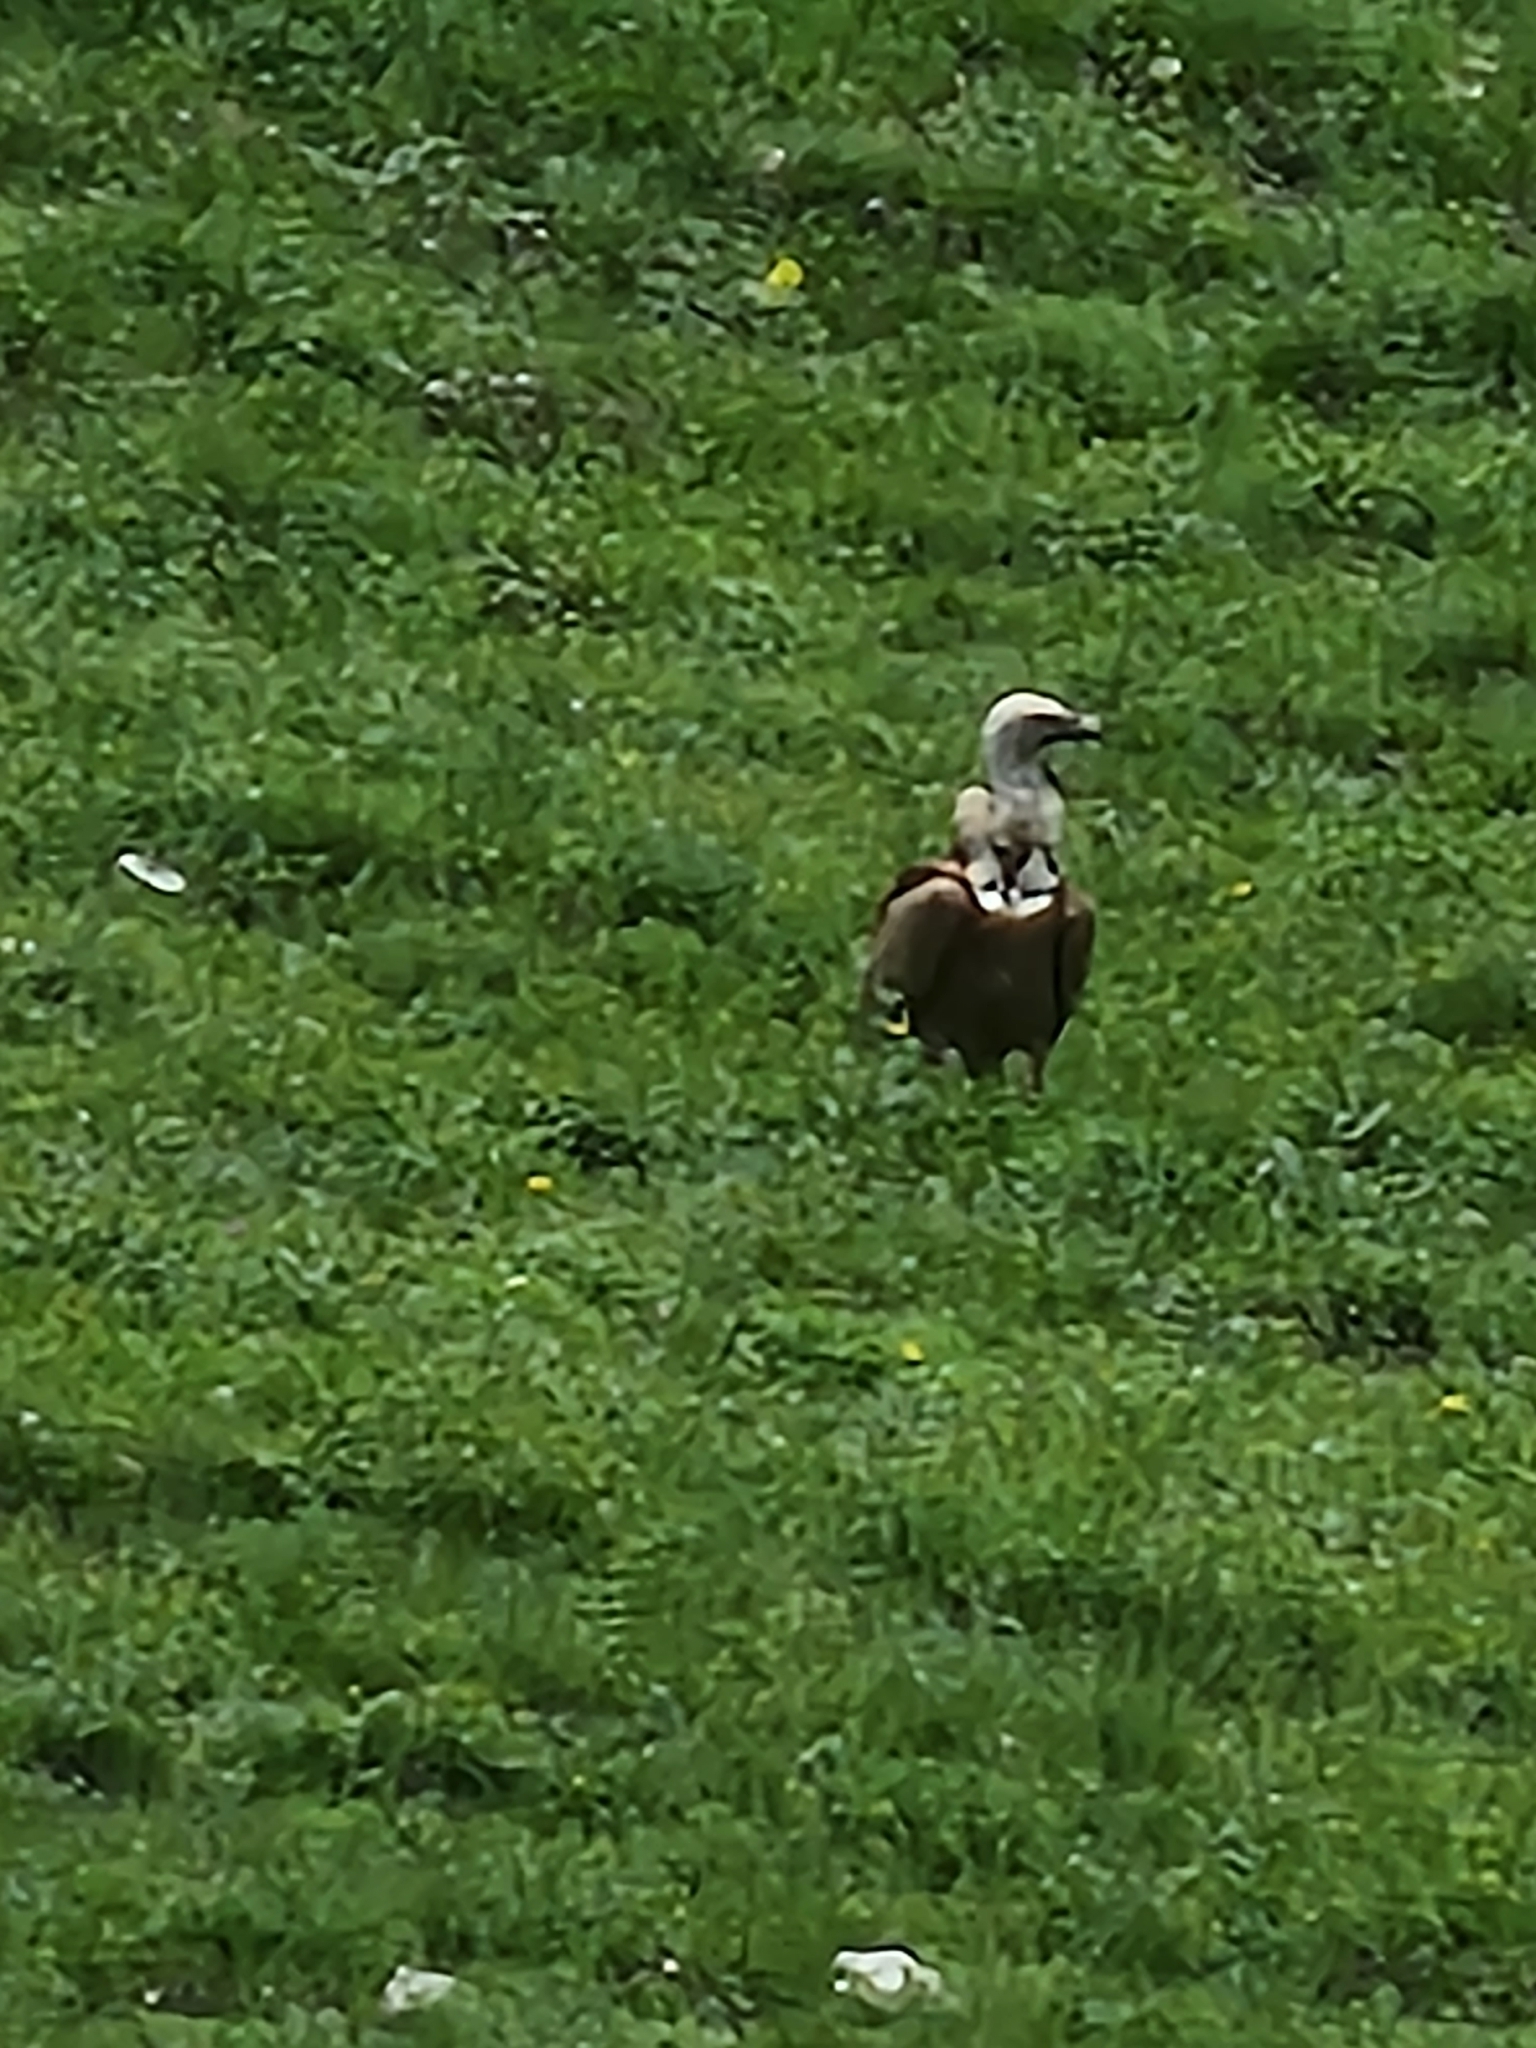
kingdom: Animalia
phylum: Chordata
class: Aves
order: Accipitriformes
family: Accipitridae
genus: Gyps
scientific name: Gyps fulvus
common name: Griffon vulture
